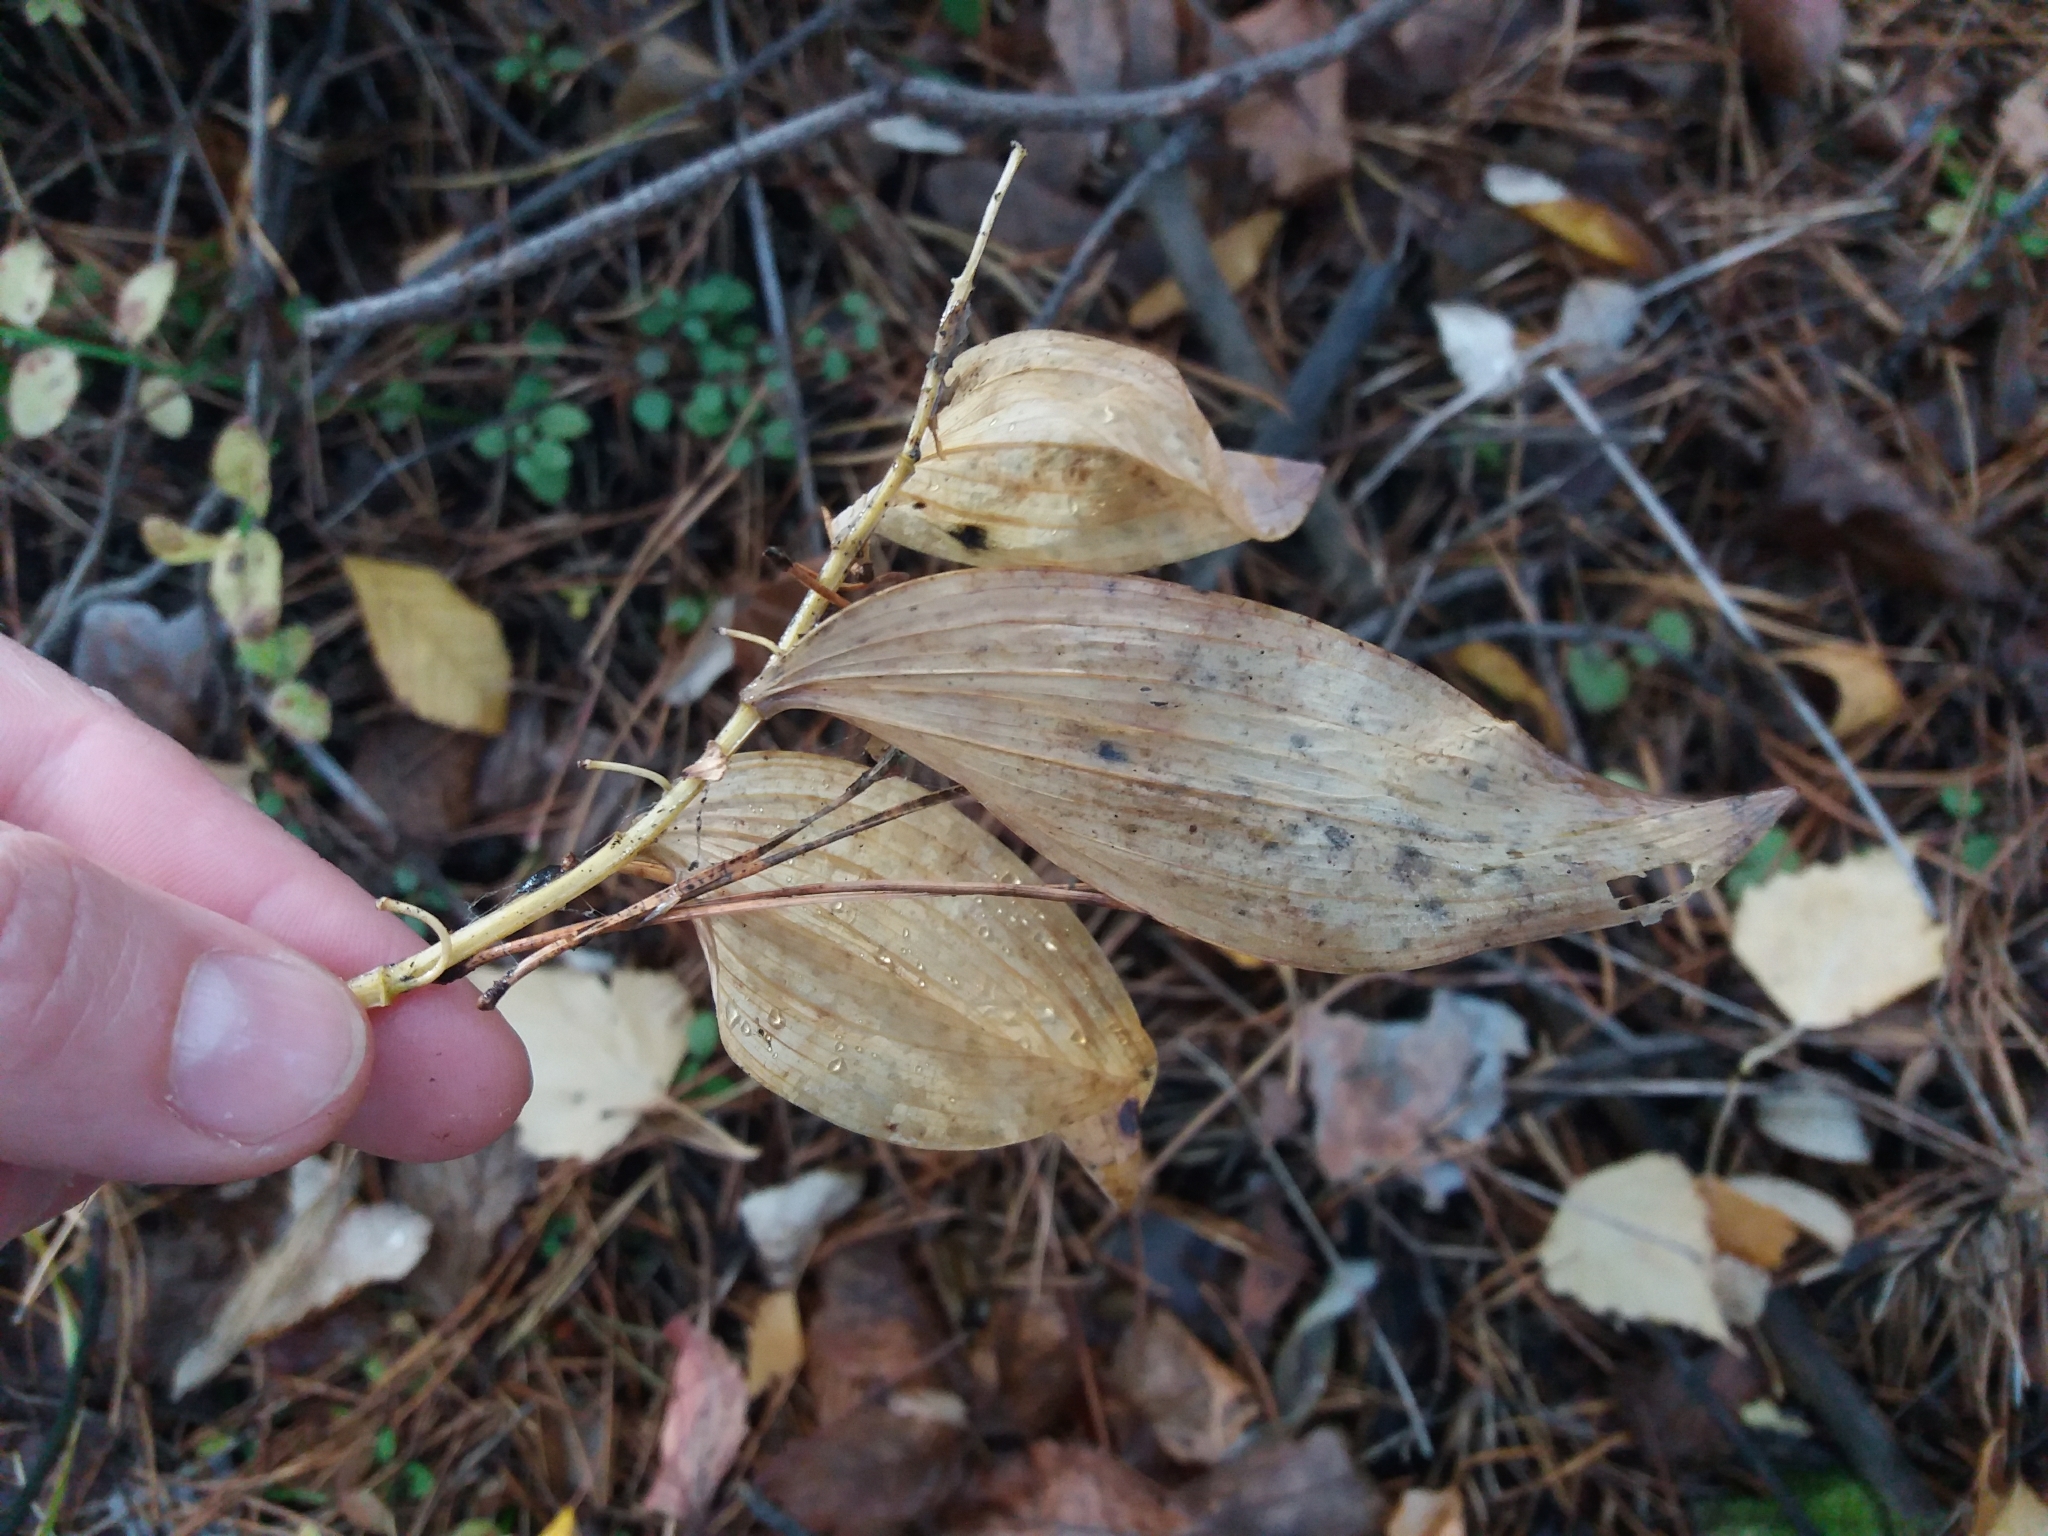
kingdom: Plantae
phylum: Tracheophyta
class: Liliopsida
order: Asparagales
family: Asparagaceae
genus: Polygonatum
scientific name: Polygonatum odoratum
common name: Angular solomon's-seal
